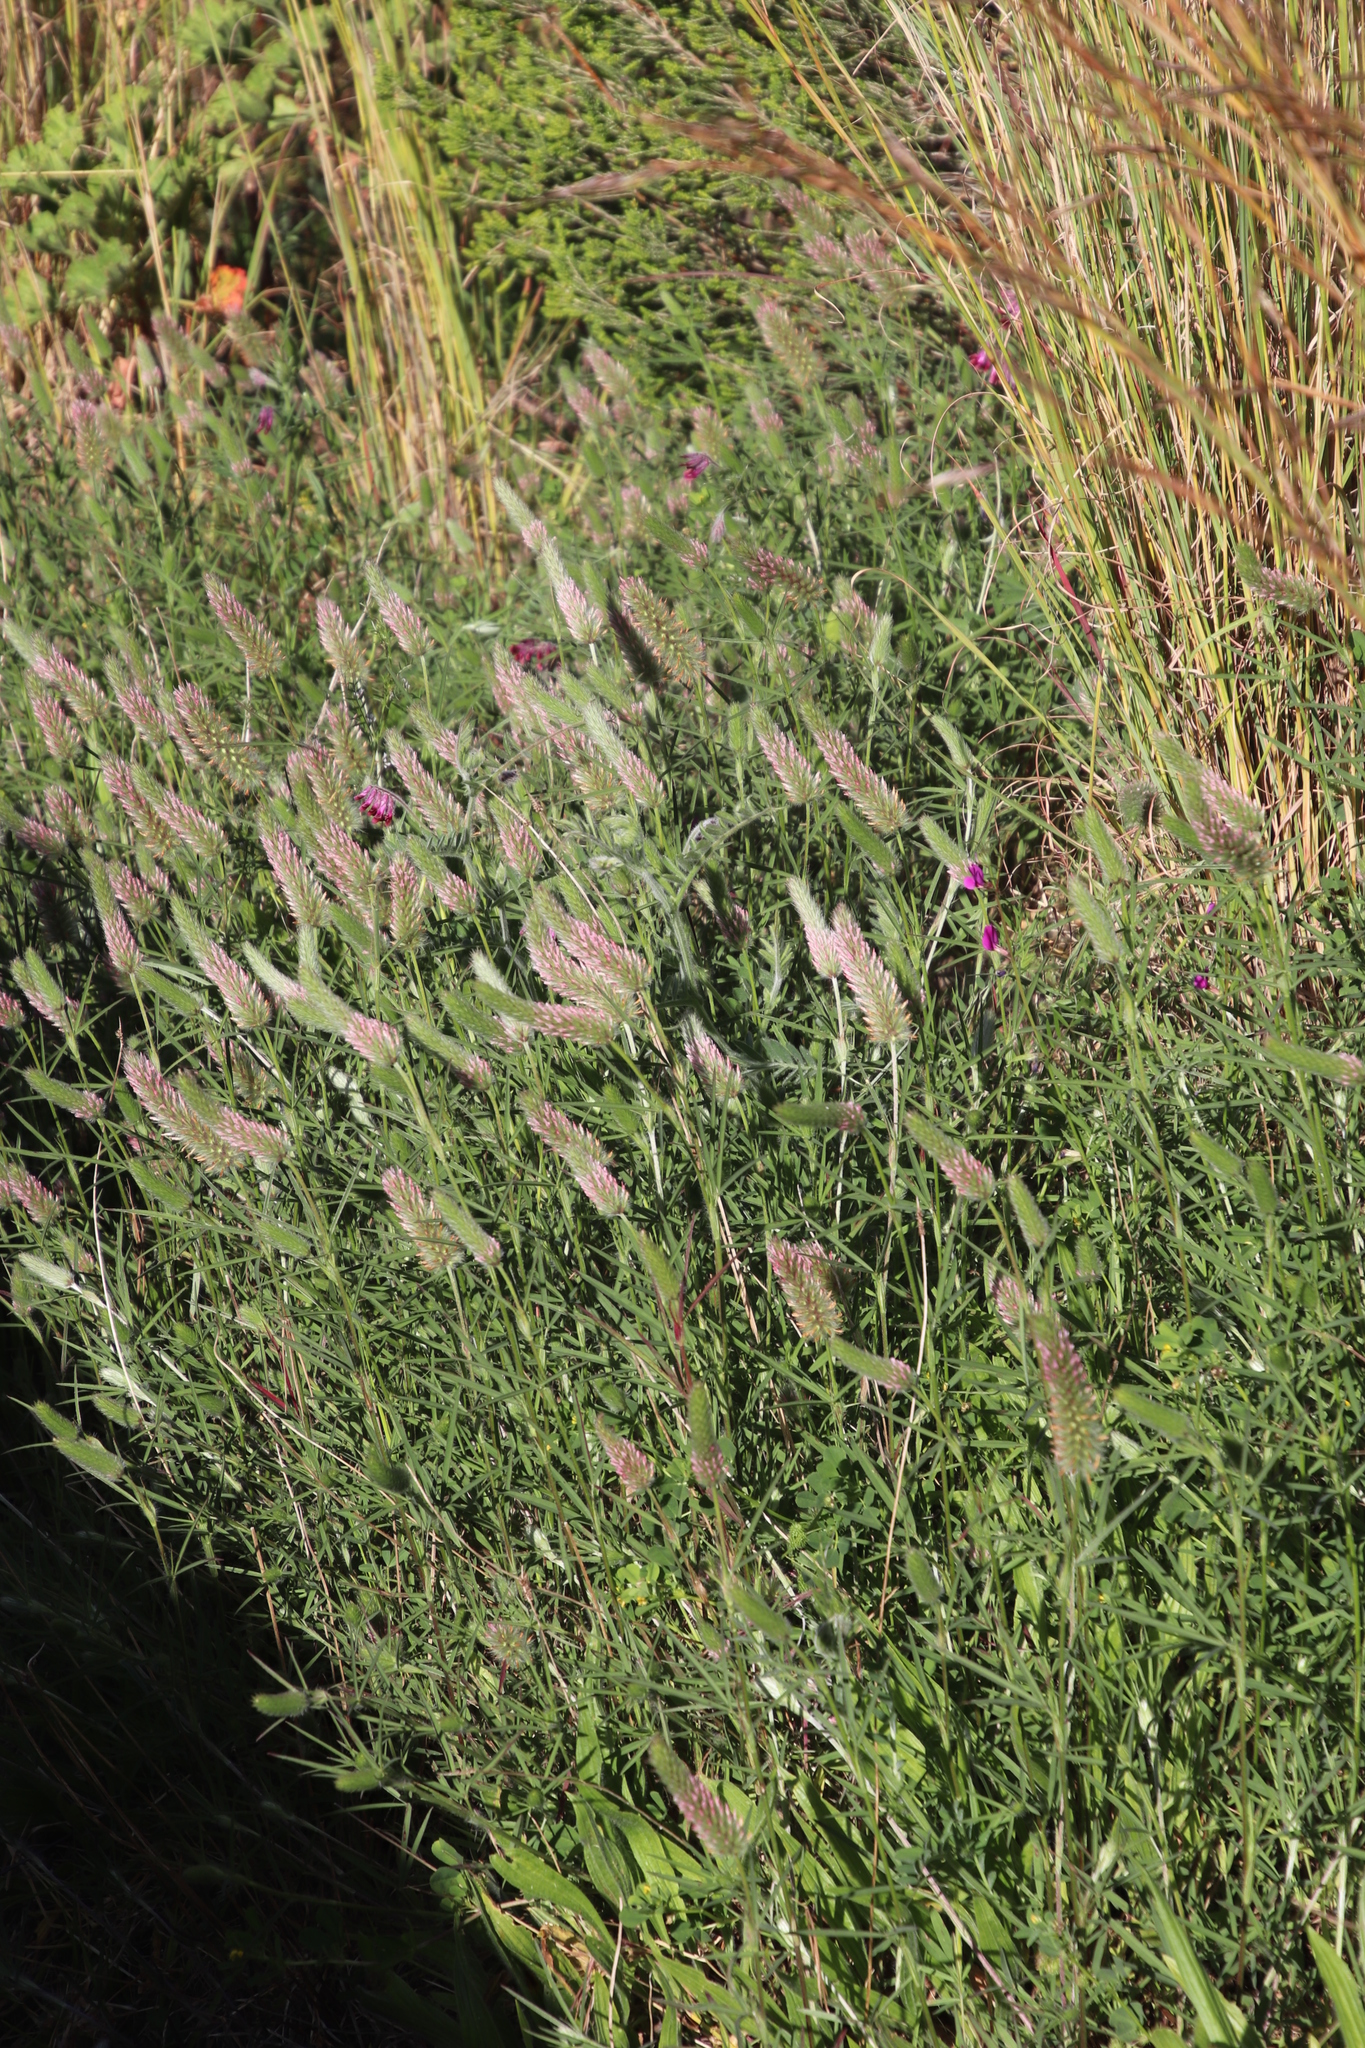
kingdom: Plantae
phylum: Tracheophyta
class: Magnoliopsida
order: Fabales
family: Fabaceae
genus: Trifolium
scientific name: Trifolium angustifolium
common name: Narrow clover
